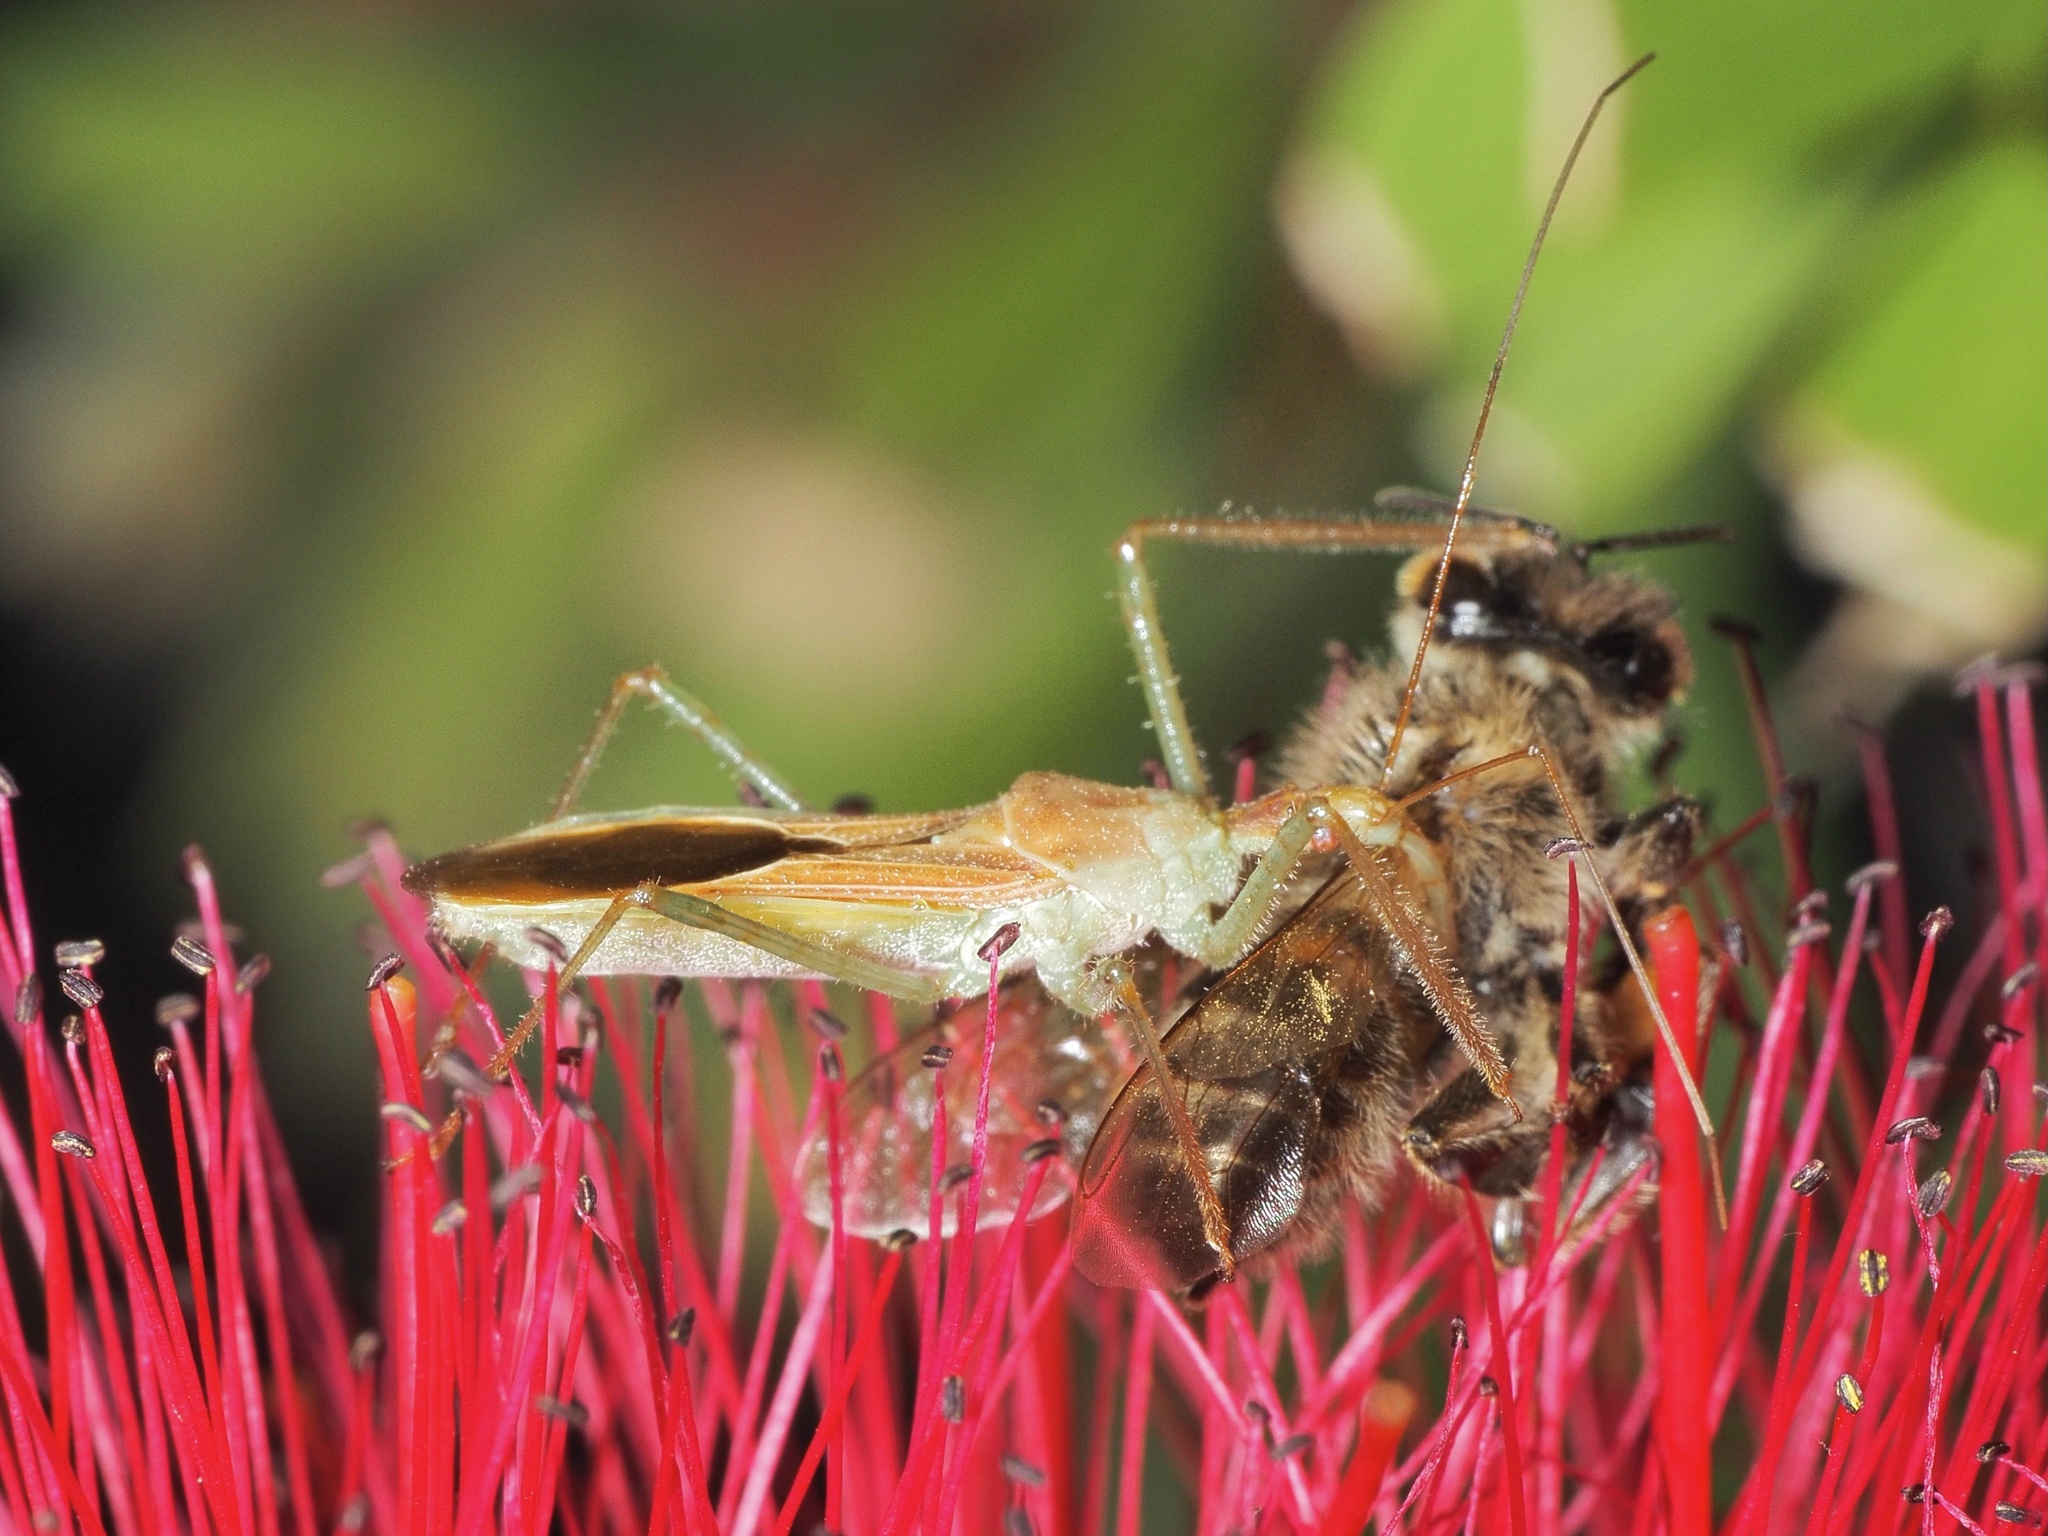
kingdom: Animalia
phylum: Arthropoda
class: Insecta
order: Hemiptera
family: Reduviidae
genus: Zelus
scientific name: Zelus renardii
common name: Assassin bug
